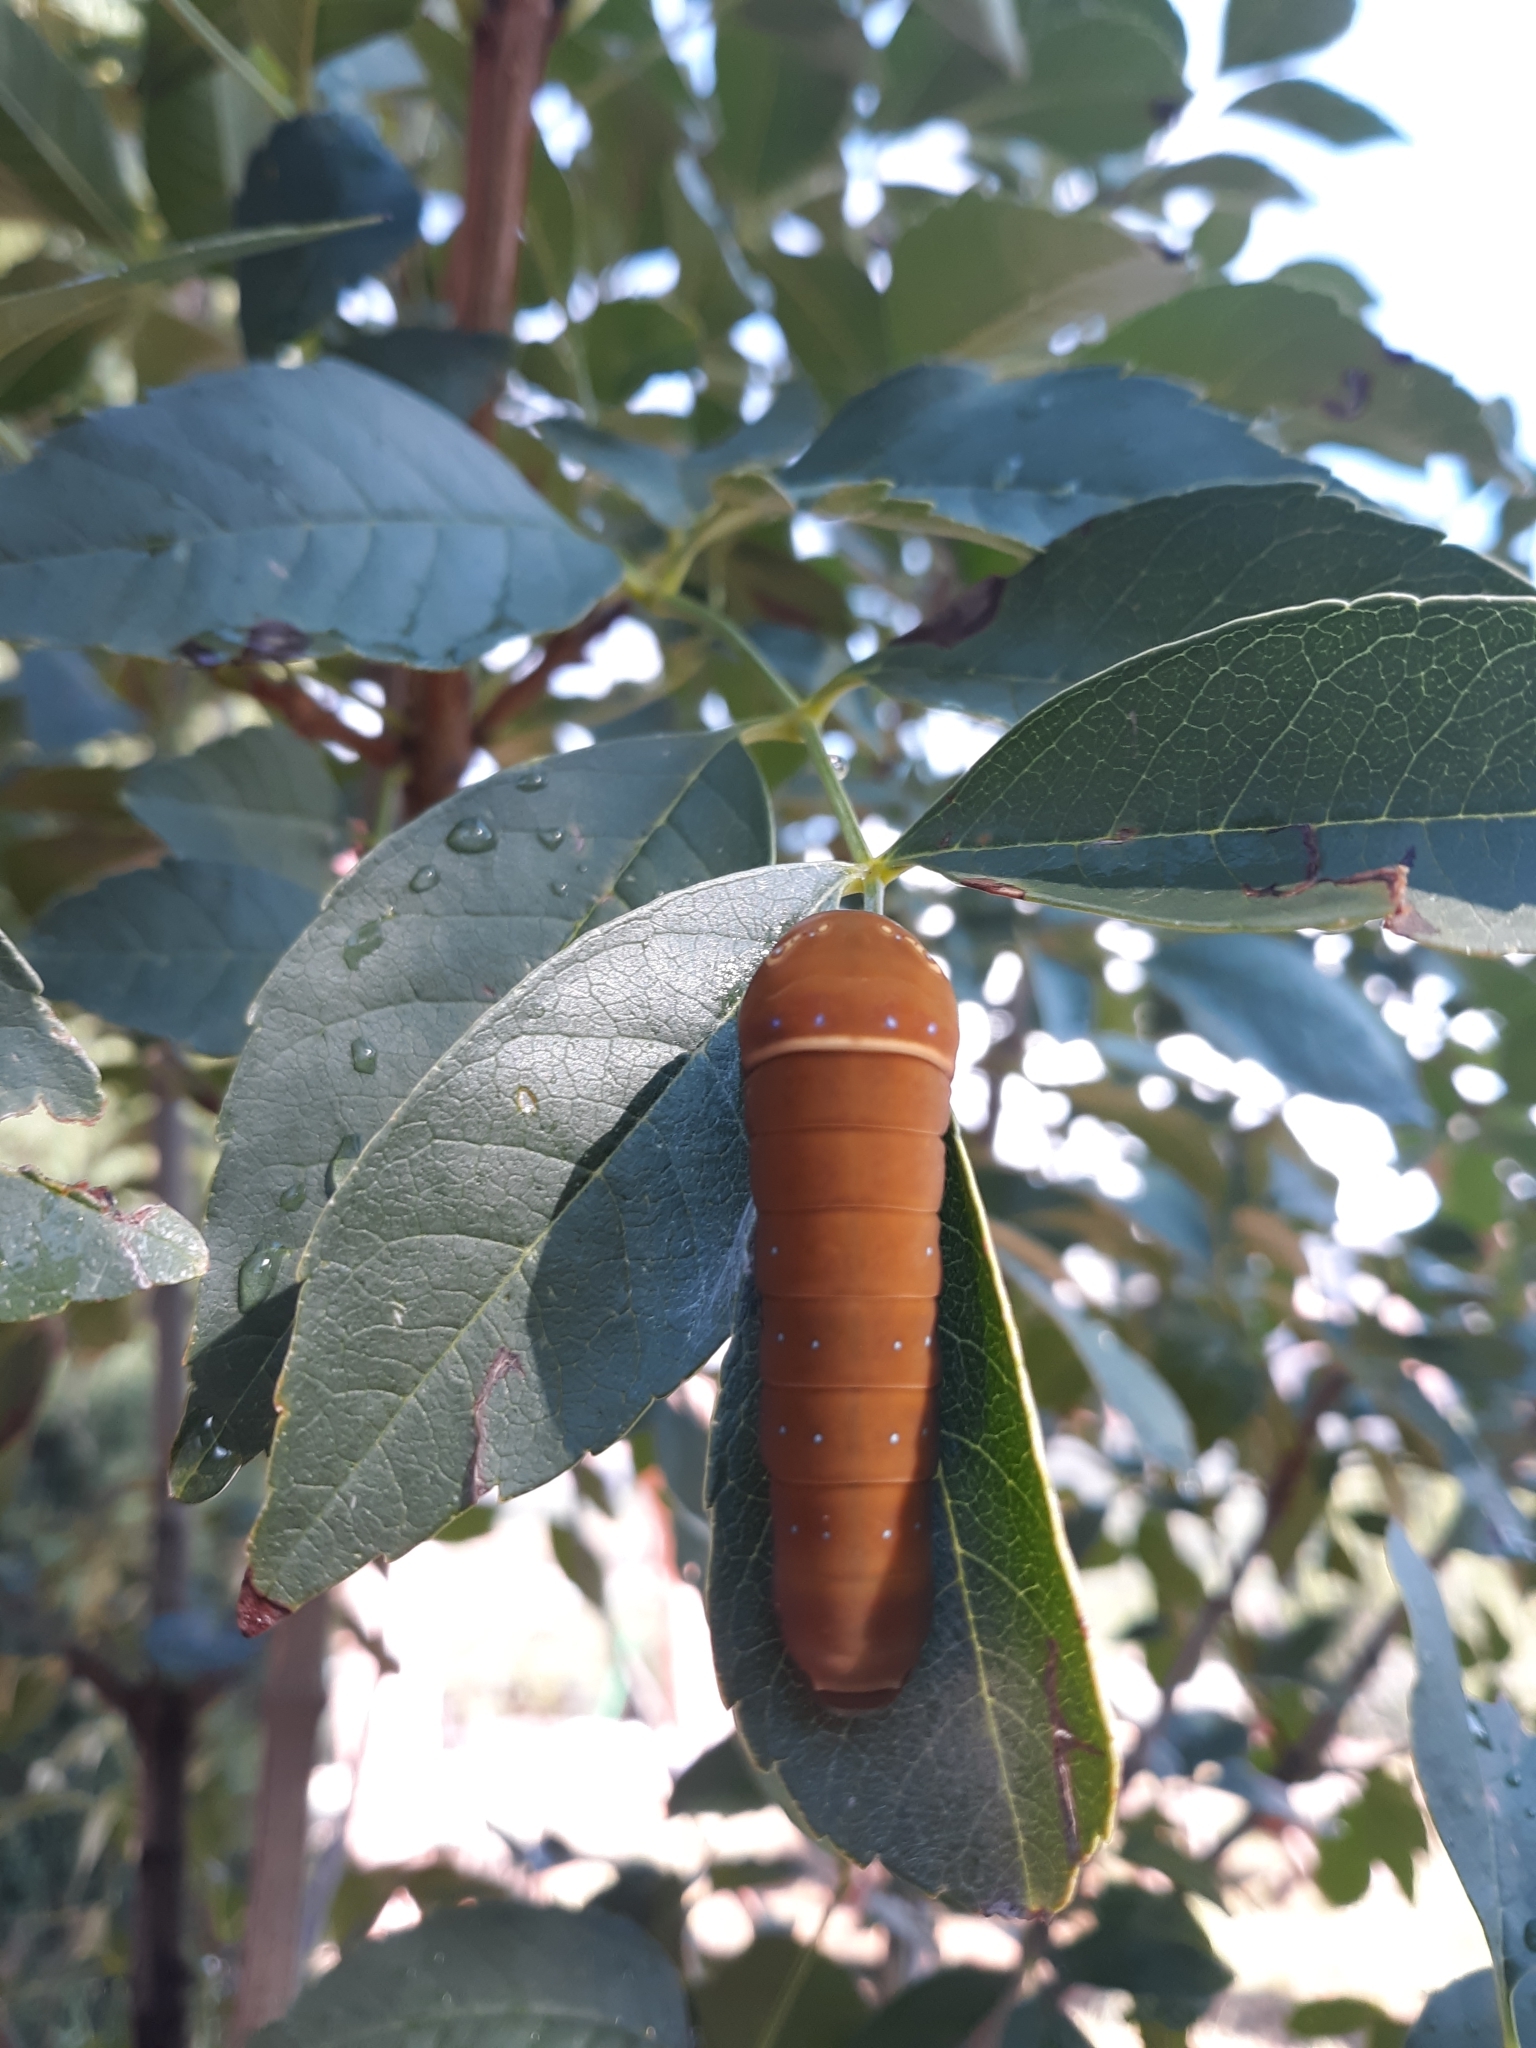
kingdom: Animalia
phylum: Arthropoda
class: Insecta
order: Lepidoptera
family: Papilionidae
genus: Papilio
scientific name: Papilio multicaudata
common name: Two-tailed tiger swallowtail
